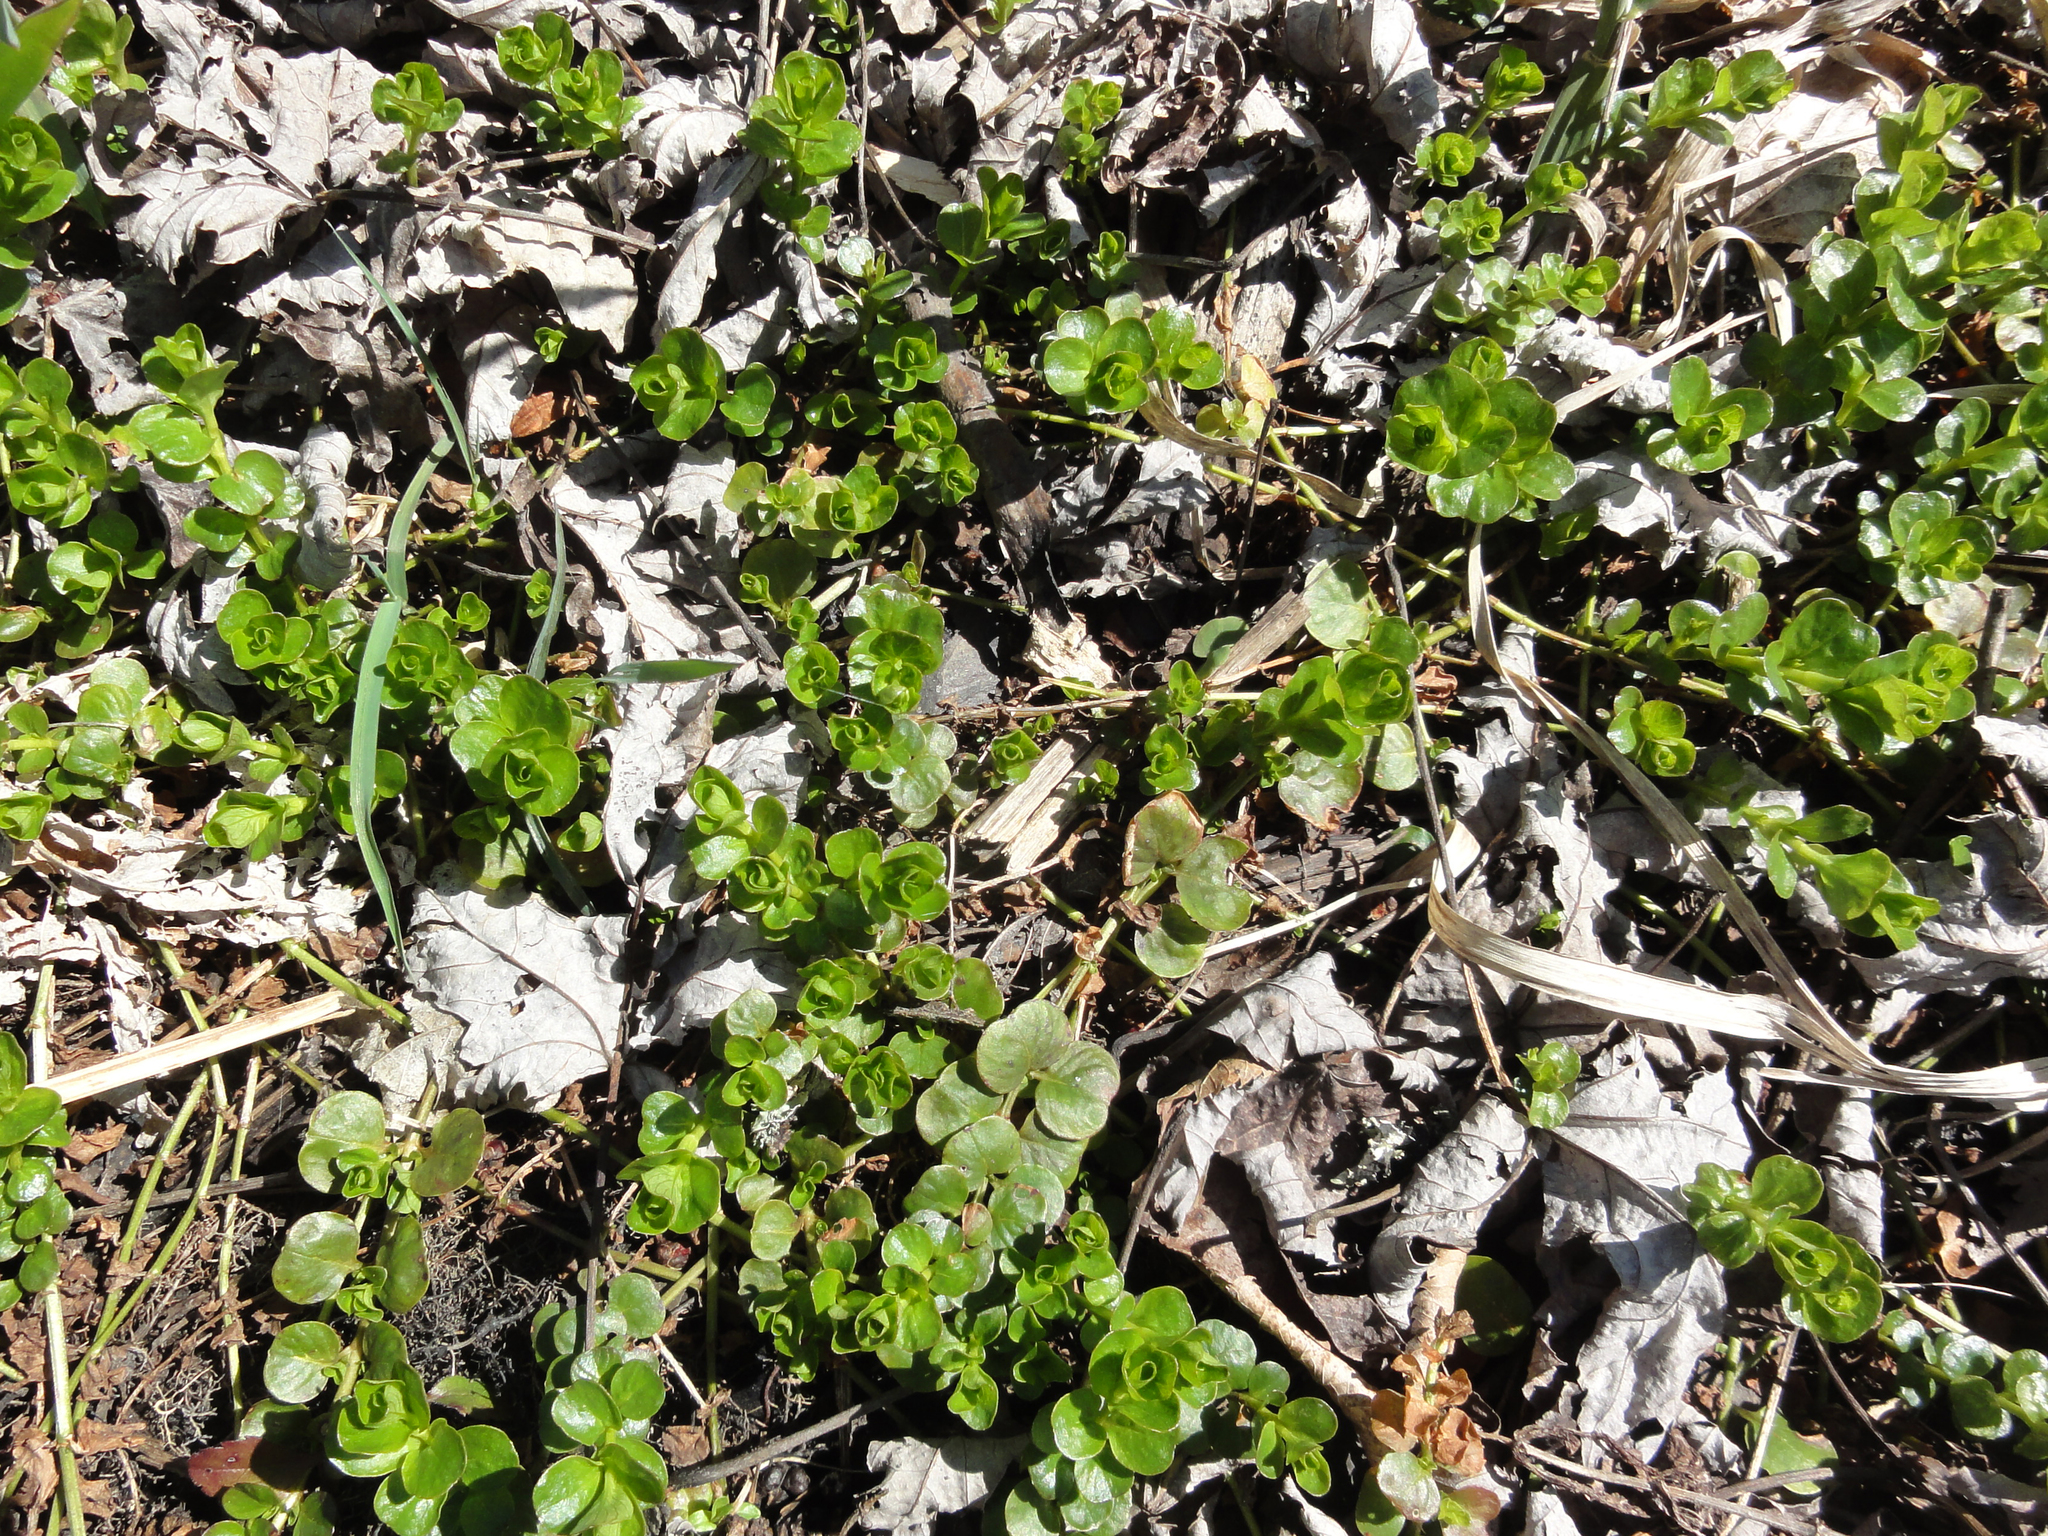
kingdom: Plantae
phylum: Tracheophyta
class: Magnoliopsida
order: Ericales
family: Primulaceae
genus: Lysimachia
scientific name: Lysimachia nummularia
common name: Moneywort
